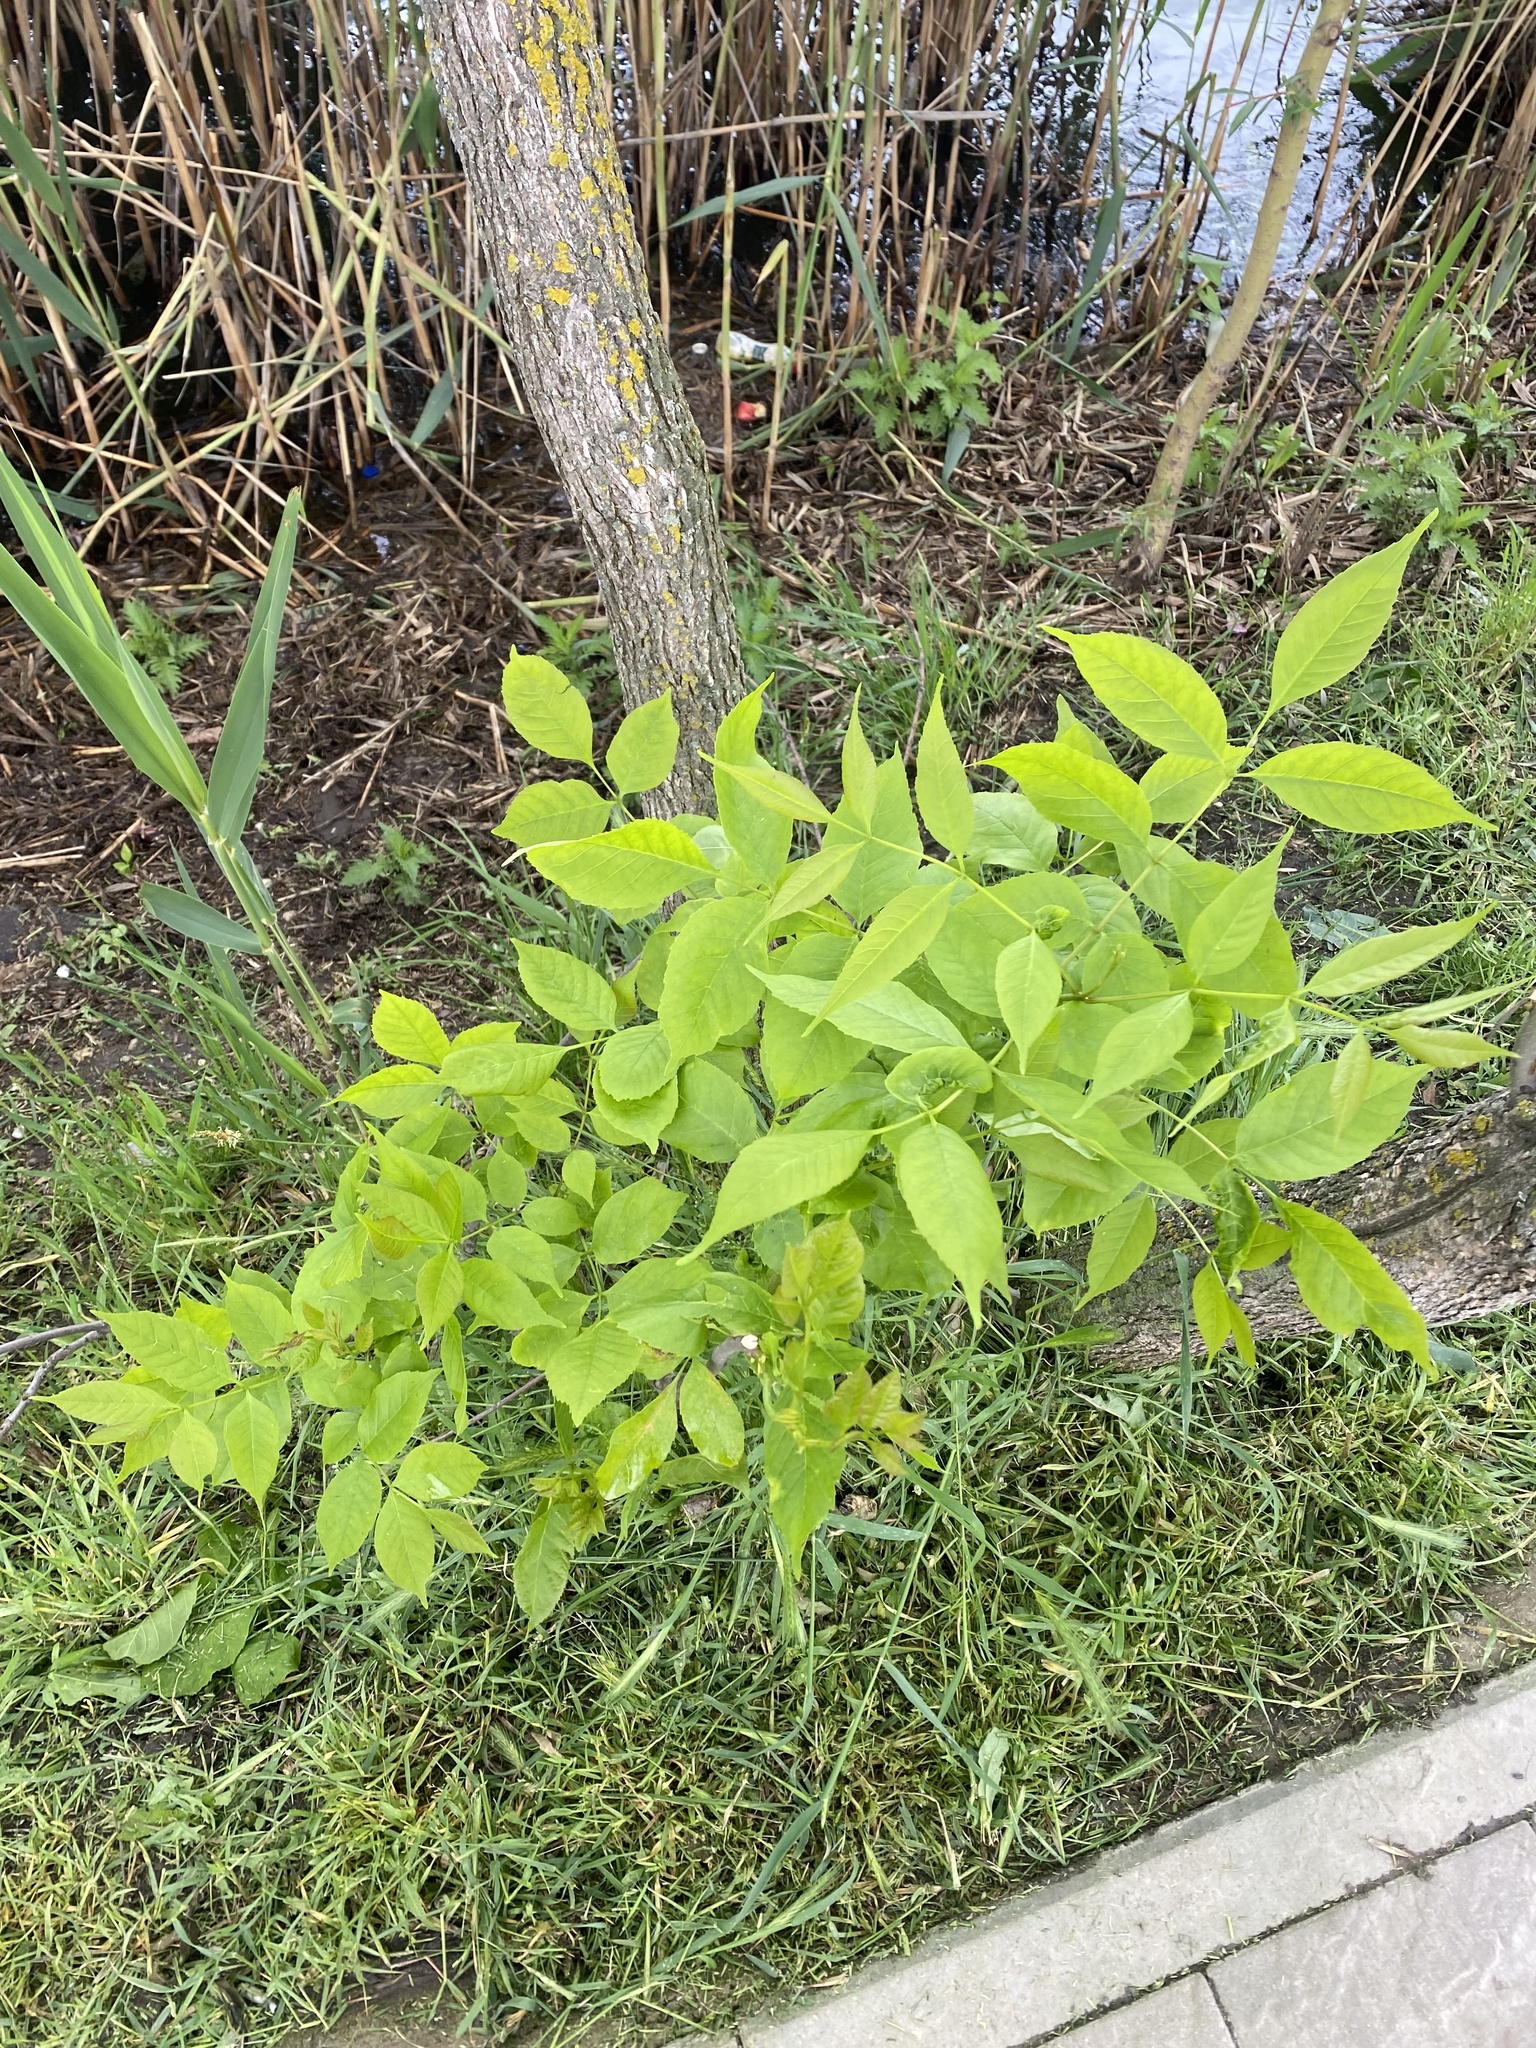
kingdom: Plantae
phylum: Tracheophyta
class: Magnoliopsida
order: Lamiales
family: Oleaceae
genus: Fraxinus
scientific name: Fraxinus pennsylvanica
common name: Green ash
